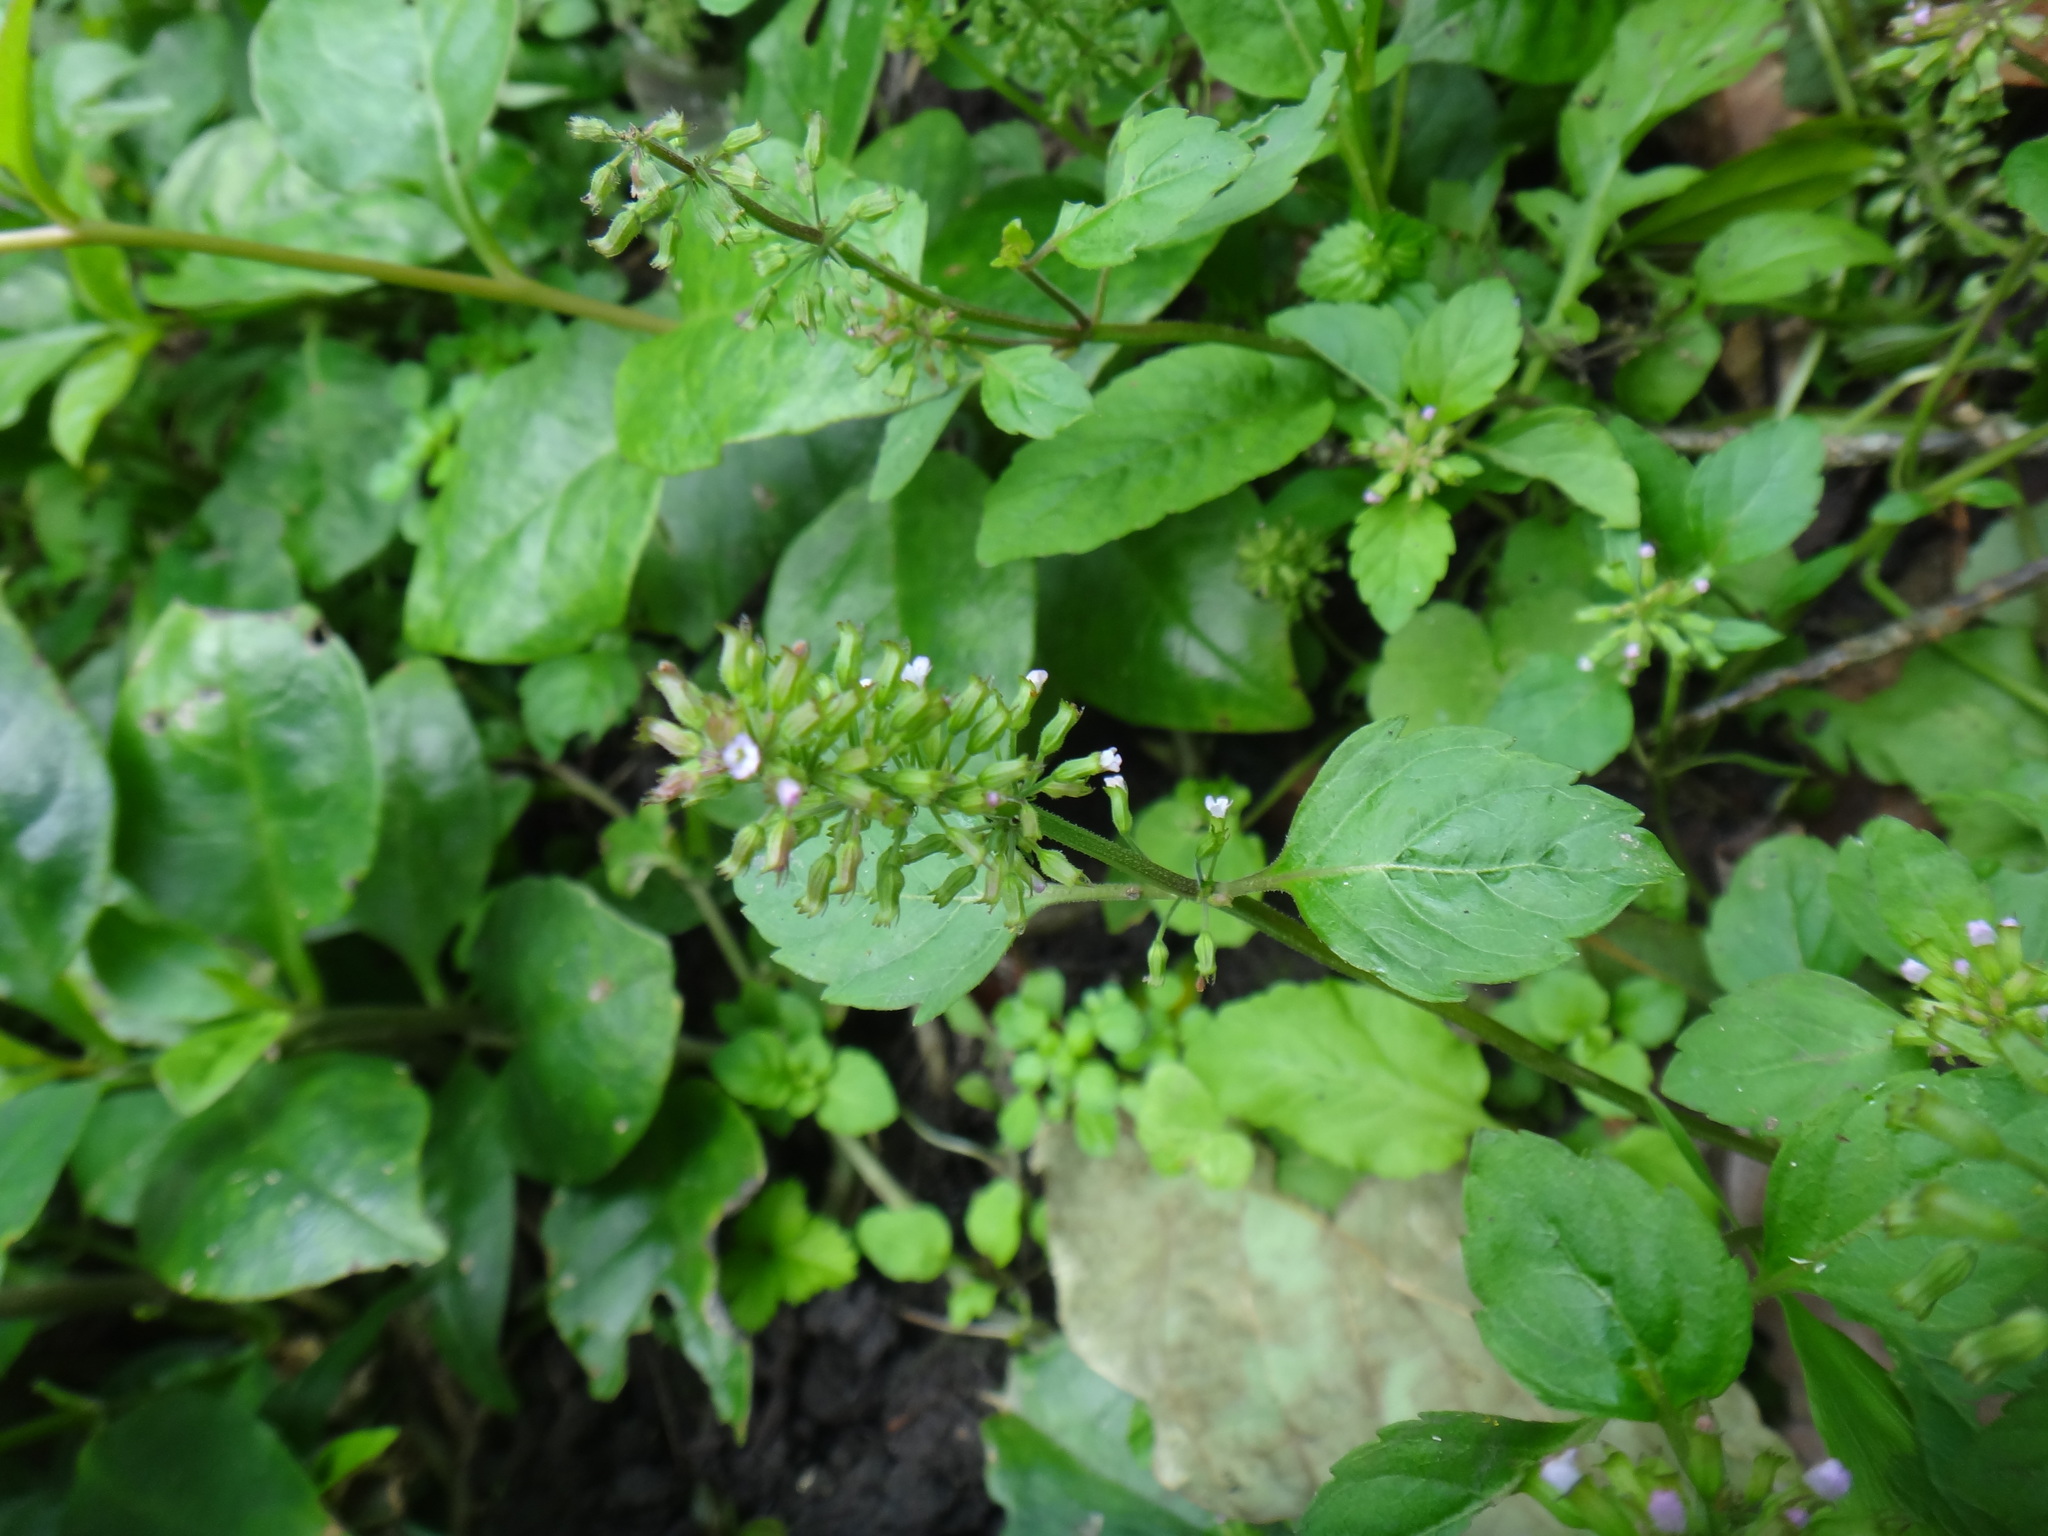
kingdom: Plantae
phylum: Tracheophyta
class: Magnoliopsida
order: Lamiales
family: Lamiaceae
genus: Clinopodium
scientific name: Clinopodium gracile
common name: Slender wild basil
